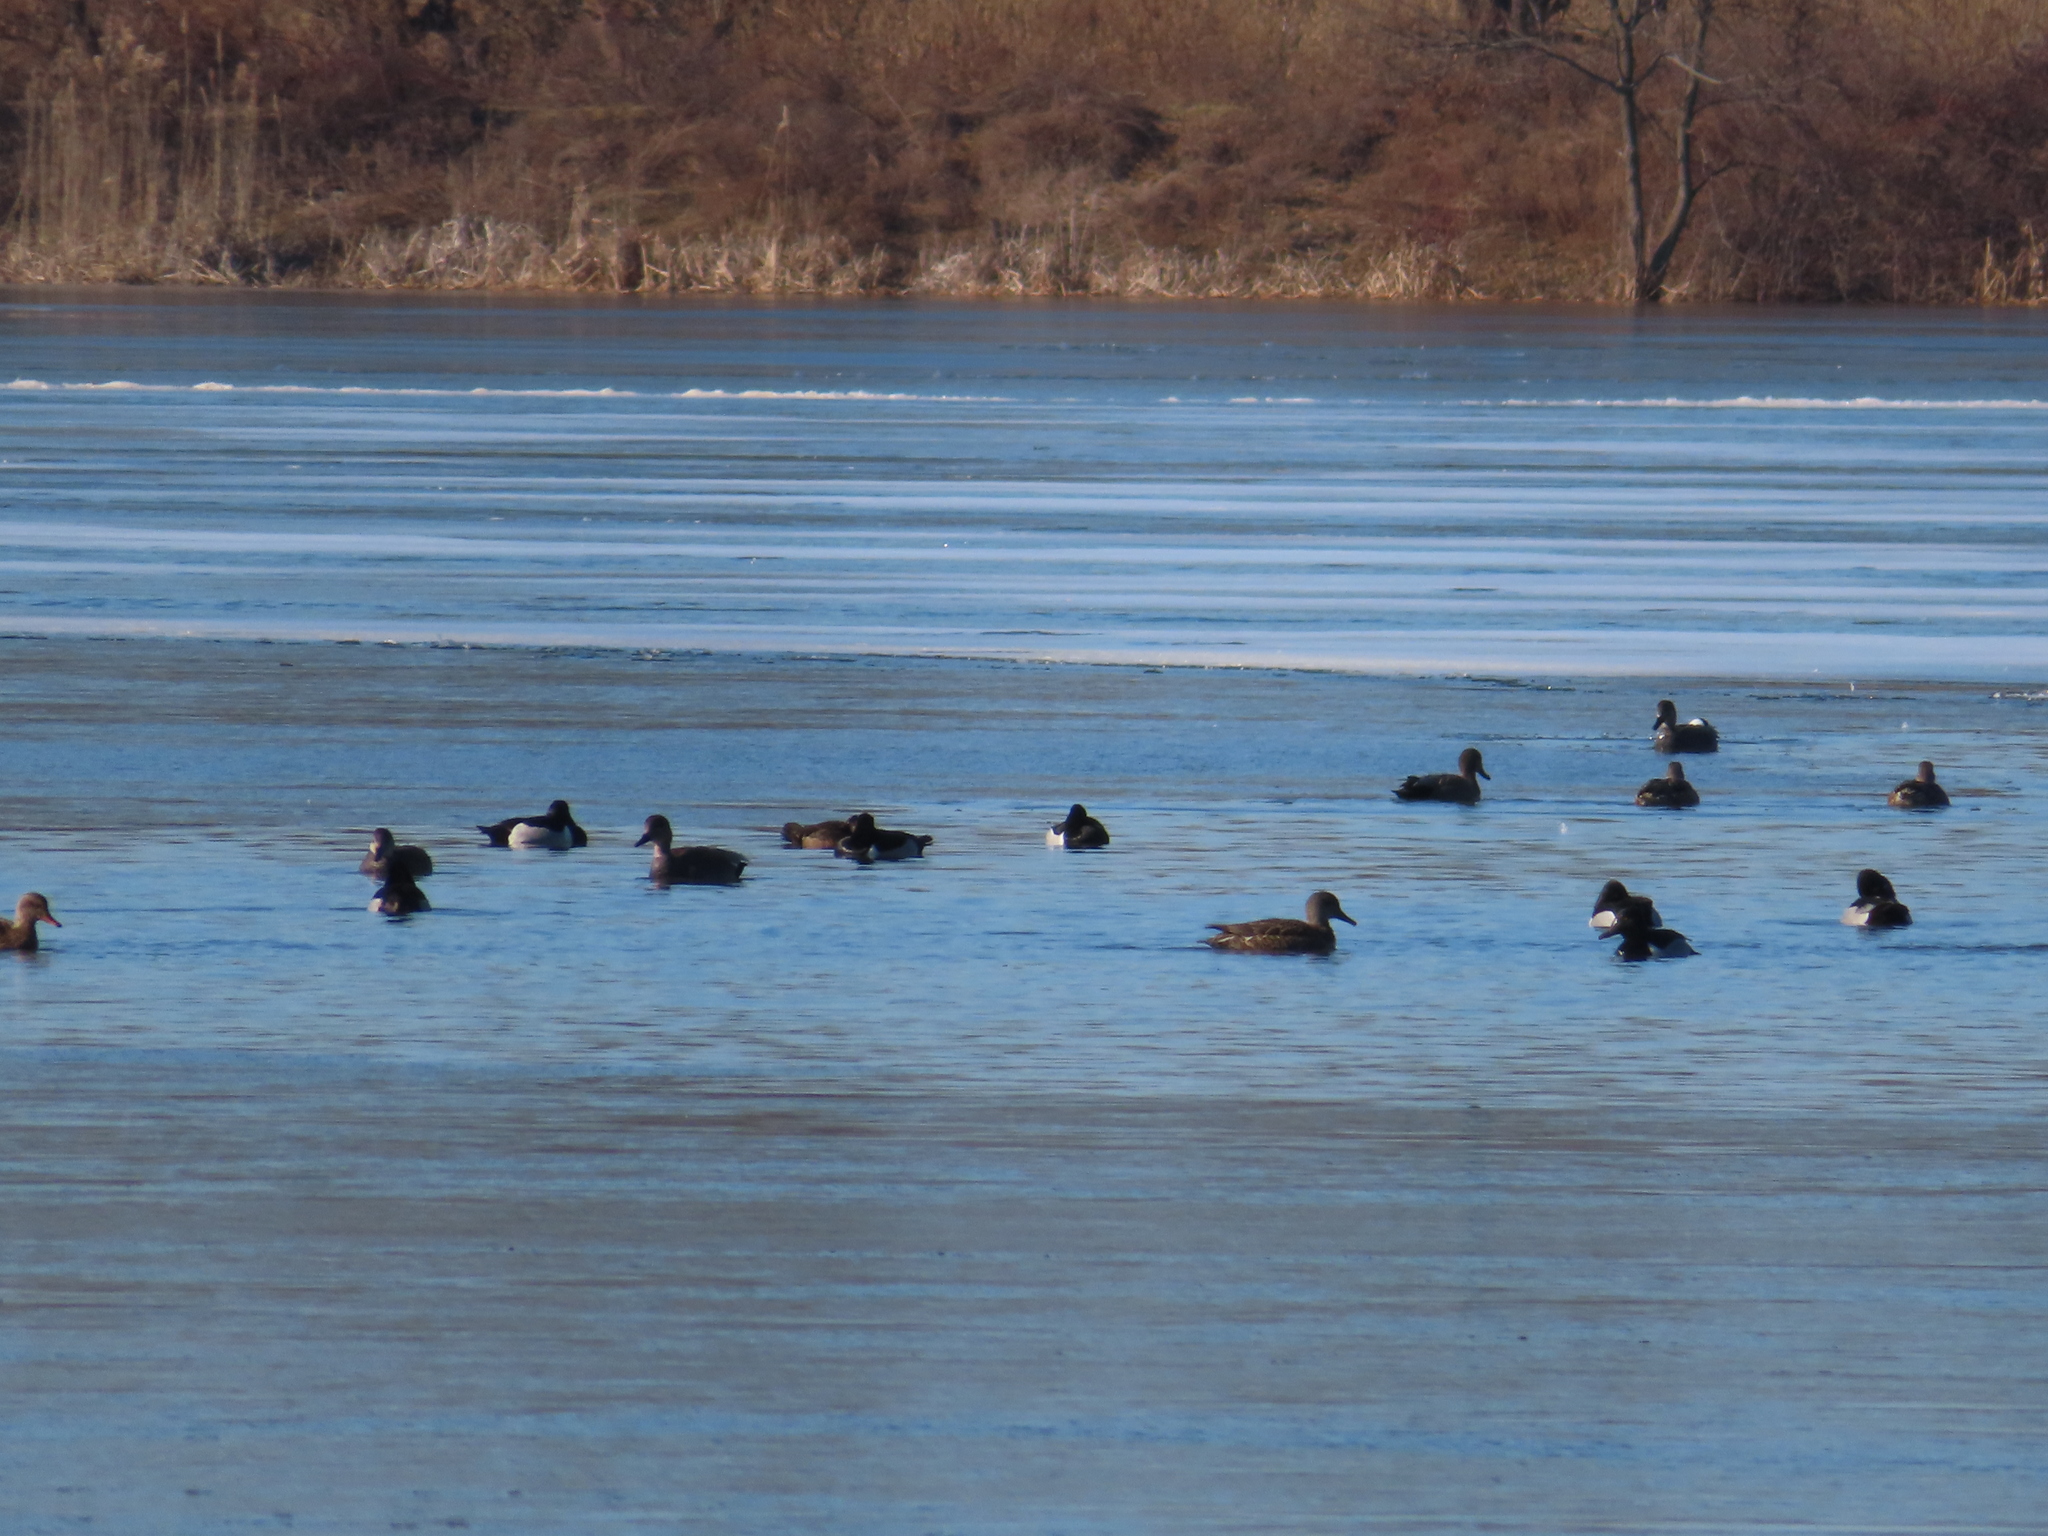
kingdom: Animalia
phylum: Chordata
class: Aves
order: Anseriformes
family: Anatidae
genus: Aythya
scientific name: Aythya collaris
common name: Ring-necked duck
